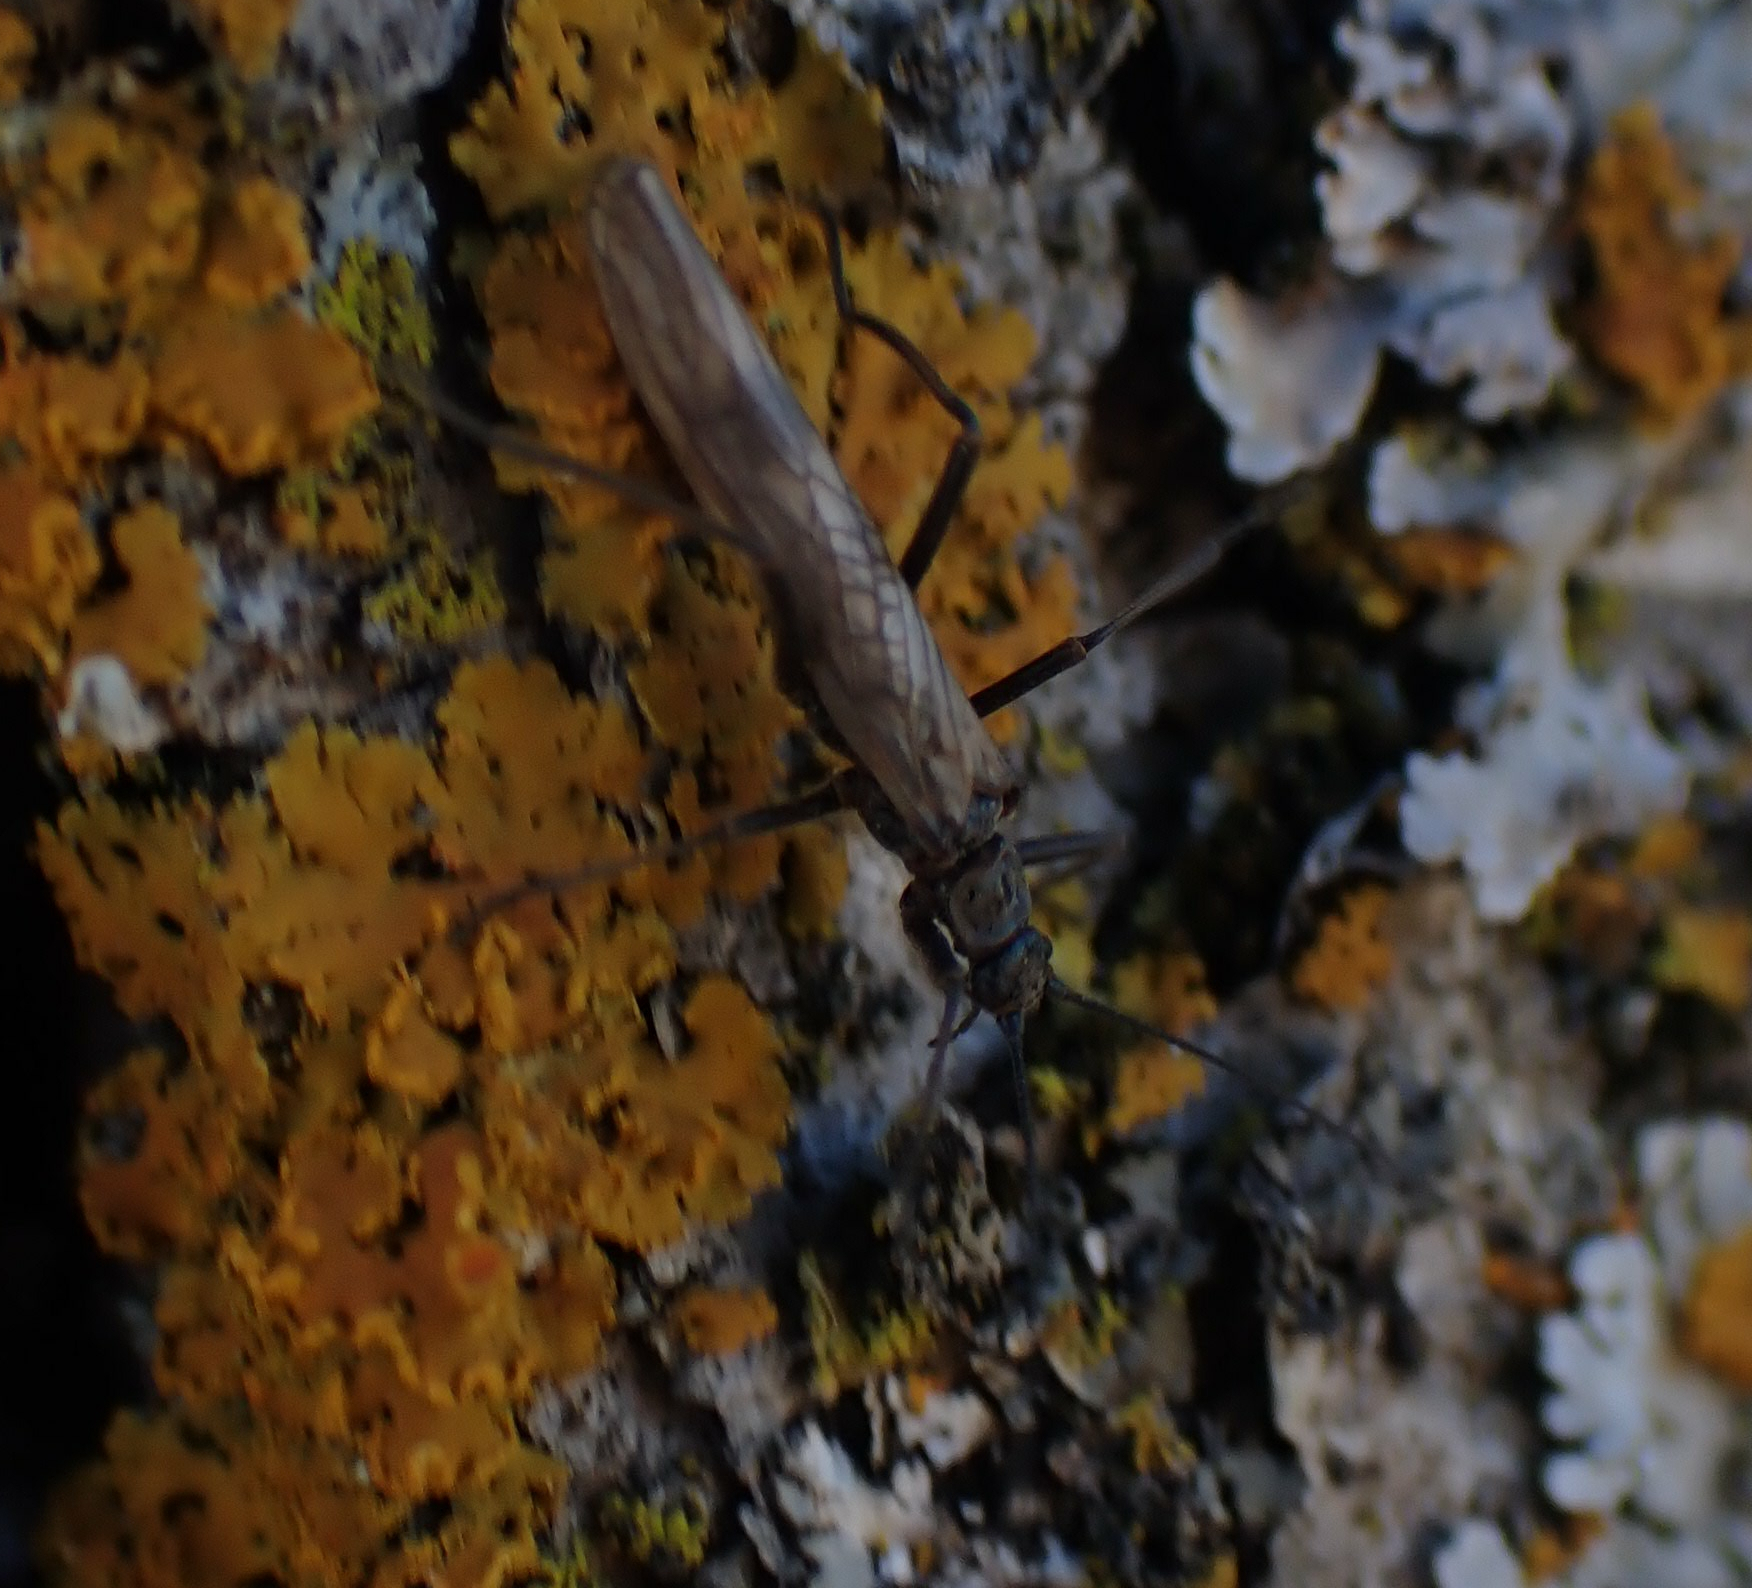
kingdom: Animalia
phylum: Arthropoda
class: Insecta
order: Plecoptera
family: Taeniopterygidae
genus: Taeniopteryx
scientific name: Taeniopteryx nivalis
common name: Boreal willowfly
